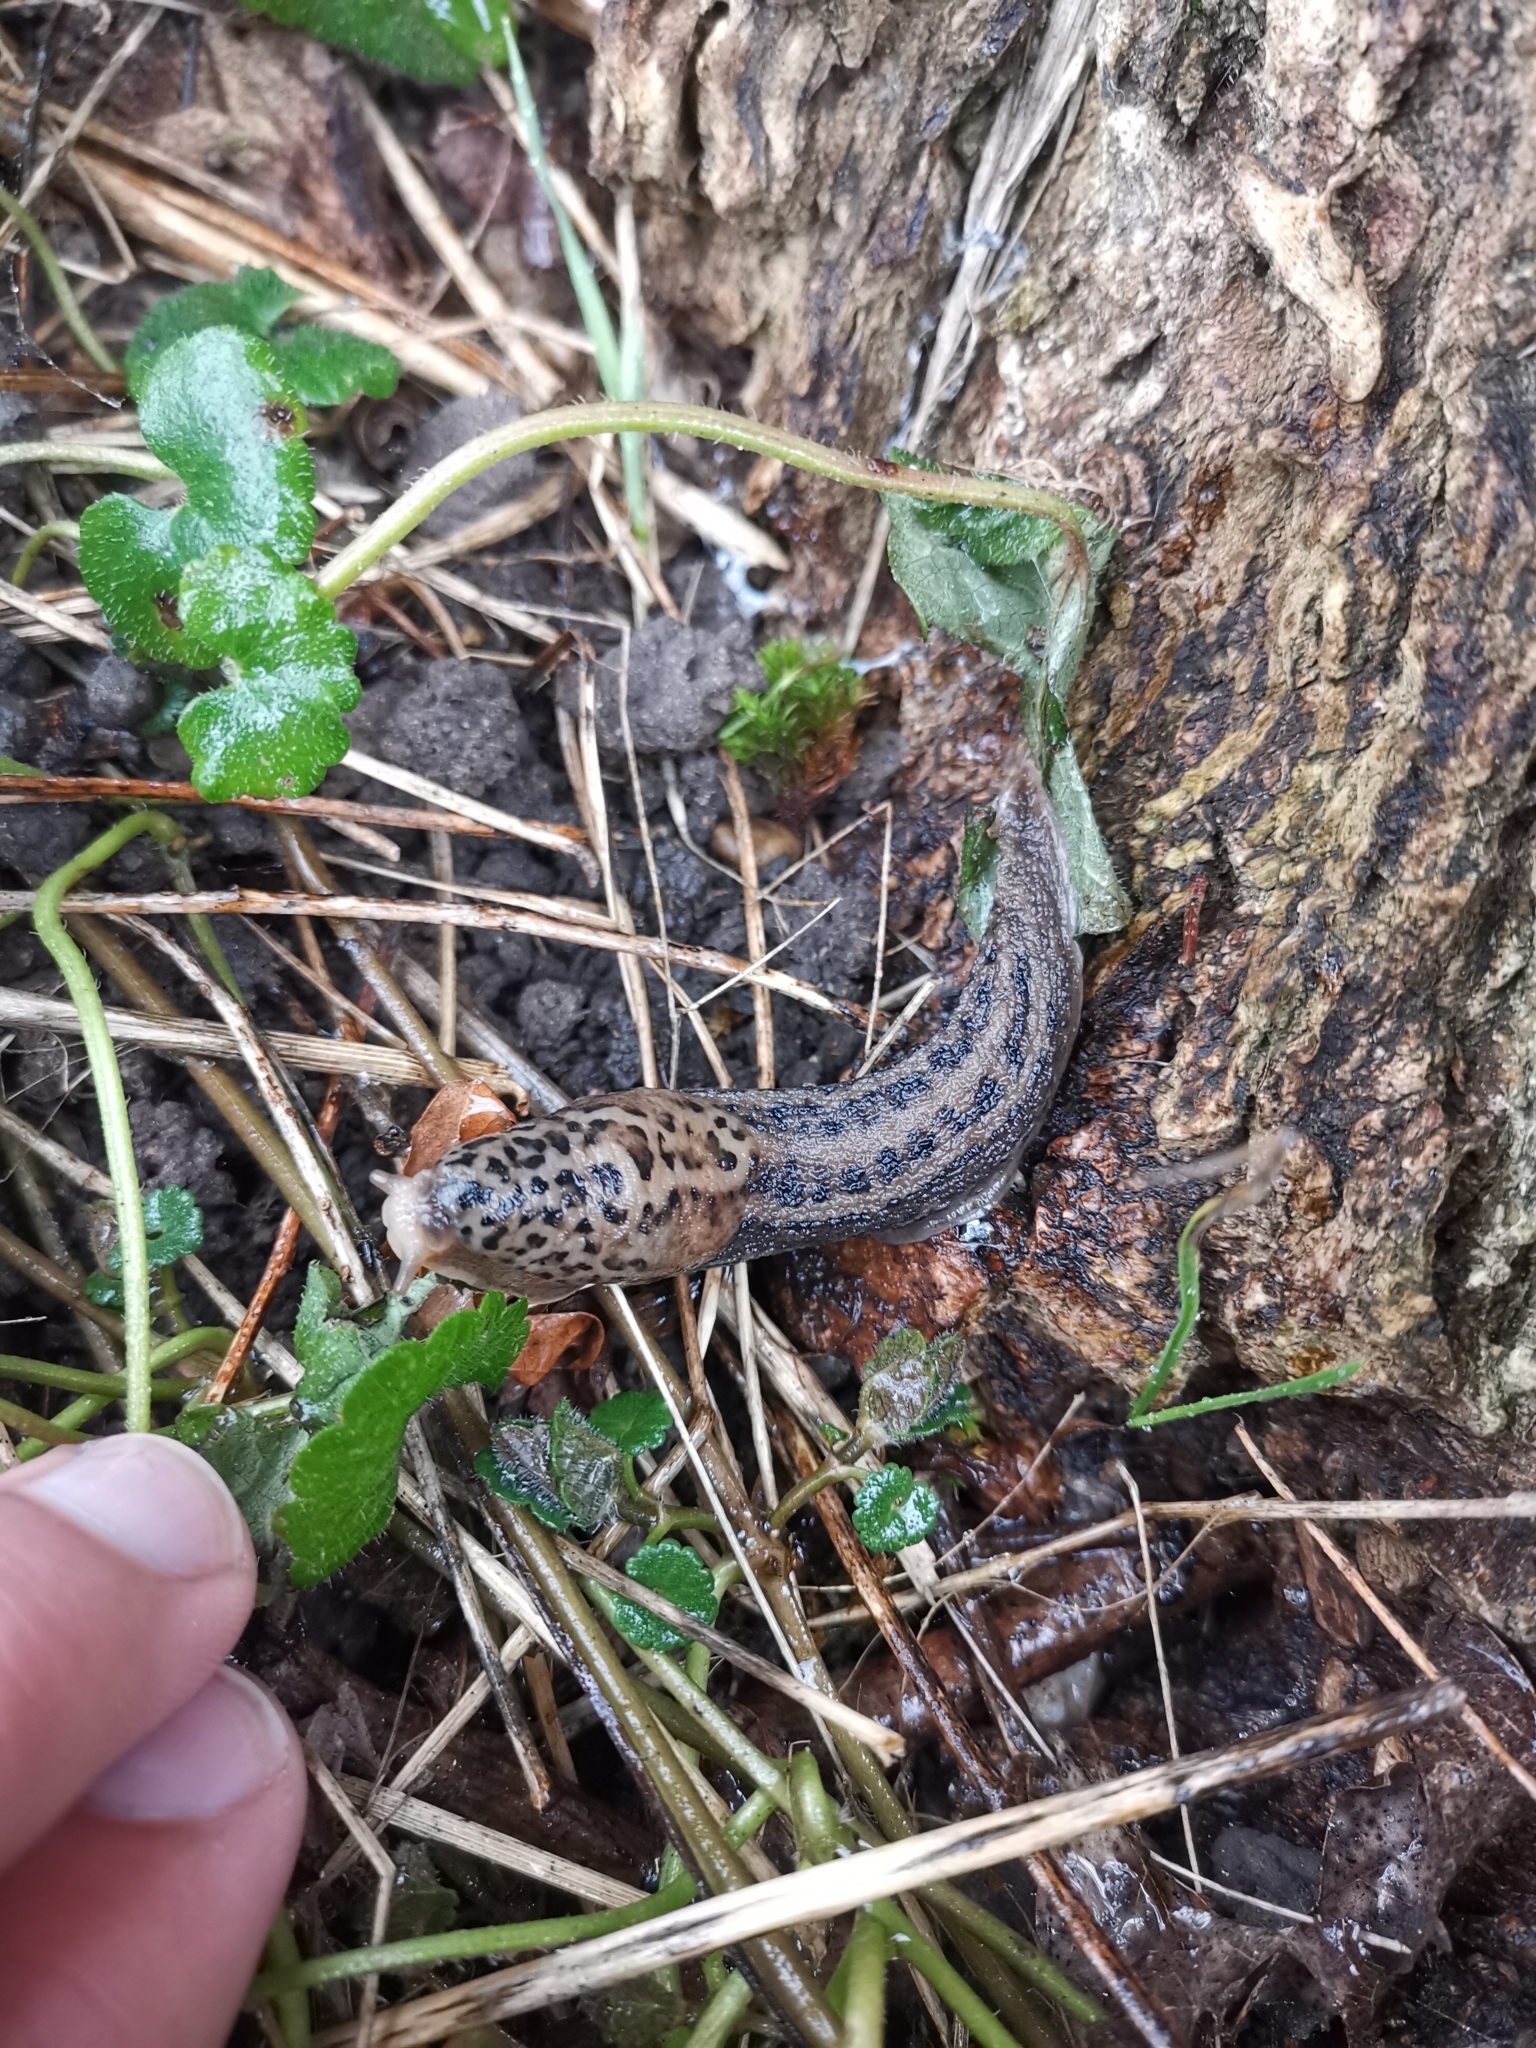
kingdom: Animalia
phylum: Mollusca
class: Gastropoda
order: Stylommatophora
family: Limacidae
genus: Limax
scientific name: Limax maximus
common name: Great grey slug
